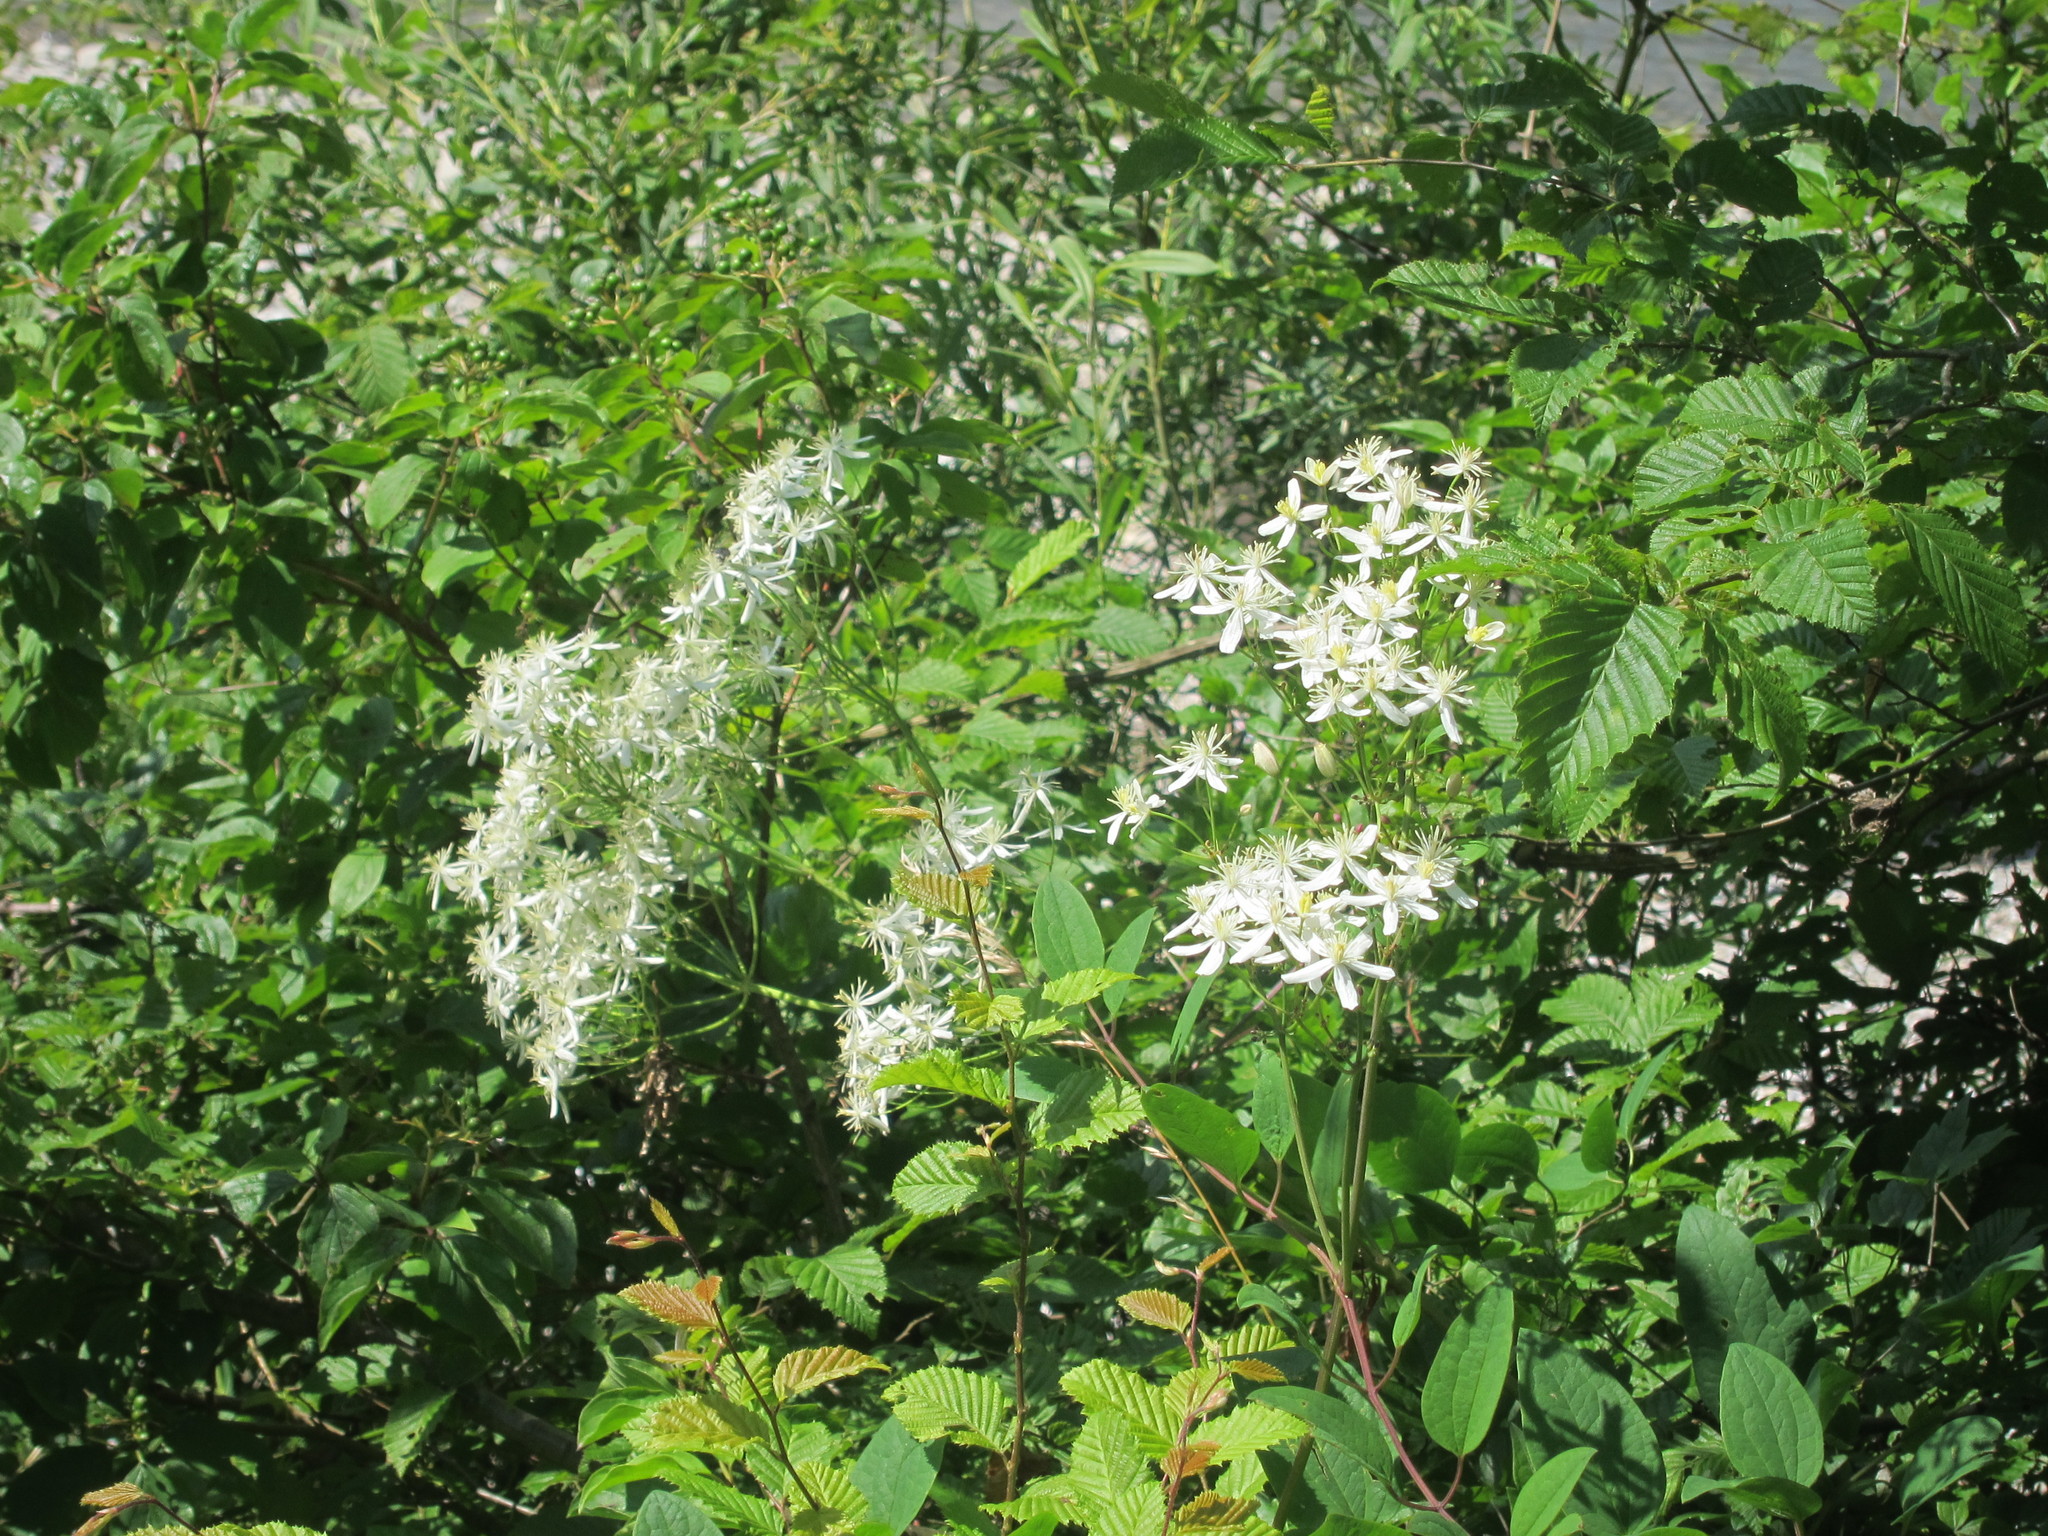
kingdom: Plantae
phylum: Tracheophyta
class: Magnoliopsida
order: Ranunculales
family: Ranunculaceae
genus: Clematis
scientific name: Clematis recta
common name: Ground clematis
